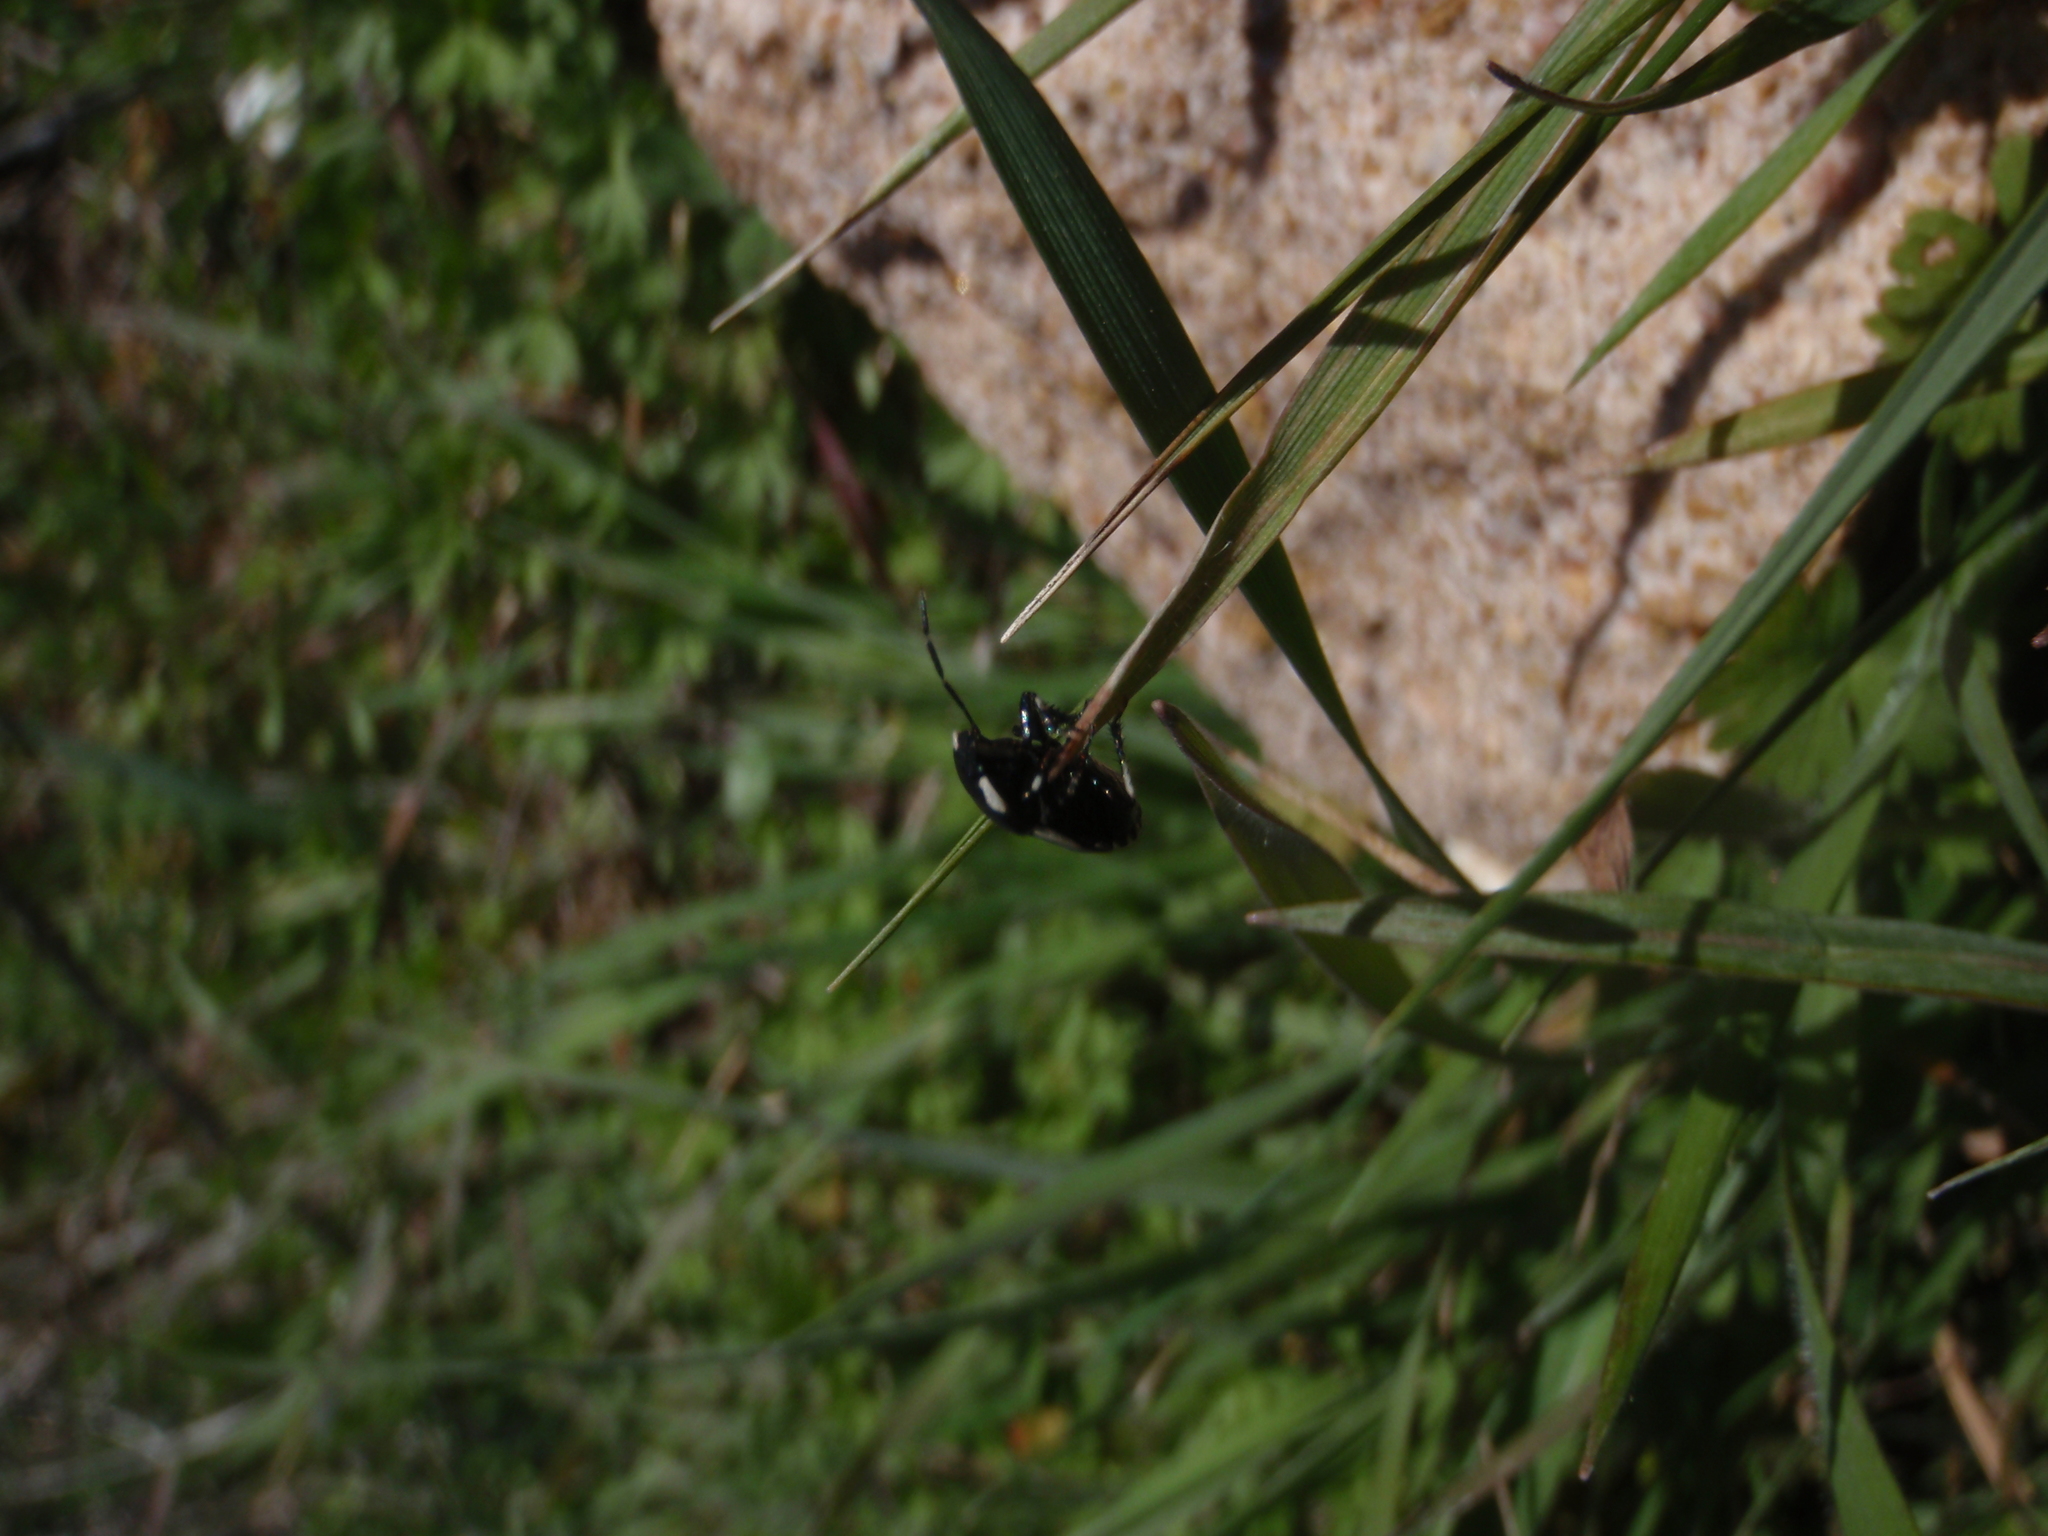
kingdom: Animalia
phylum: Arthropoda
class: Insecta
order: Hemiptera
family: Cydnidae
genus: Tritomegas
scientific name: Tritomegas bicolor
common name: Pied shieldbug
